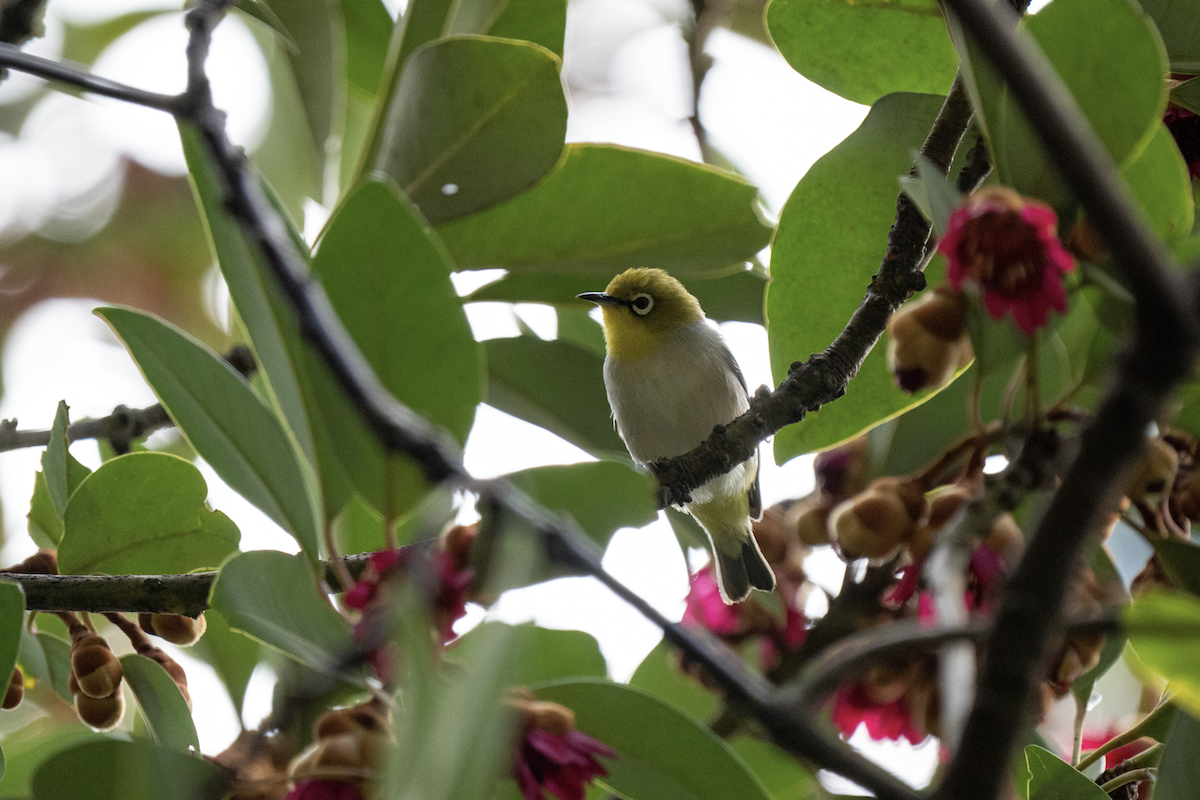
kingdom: Animalia
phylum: Chordata
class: Aves
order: Passeriformes
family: Zosteropidae
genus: Zosterops
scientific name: Zosterops simplex
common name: Swinhoe's white-eye
